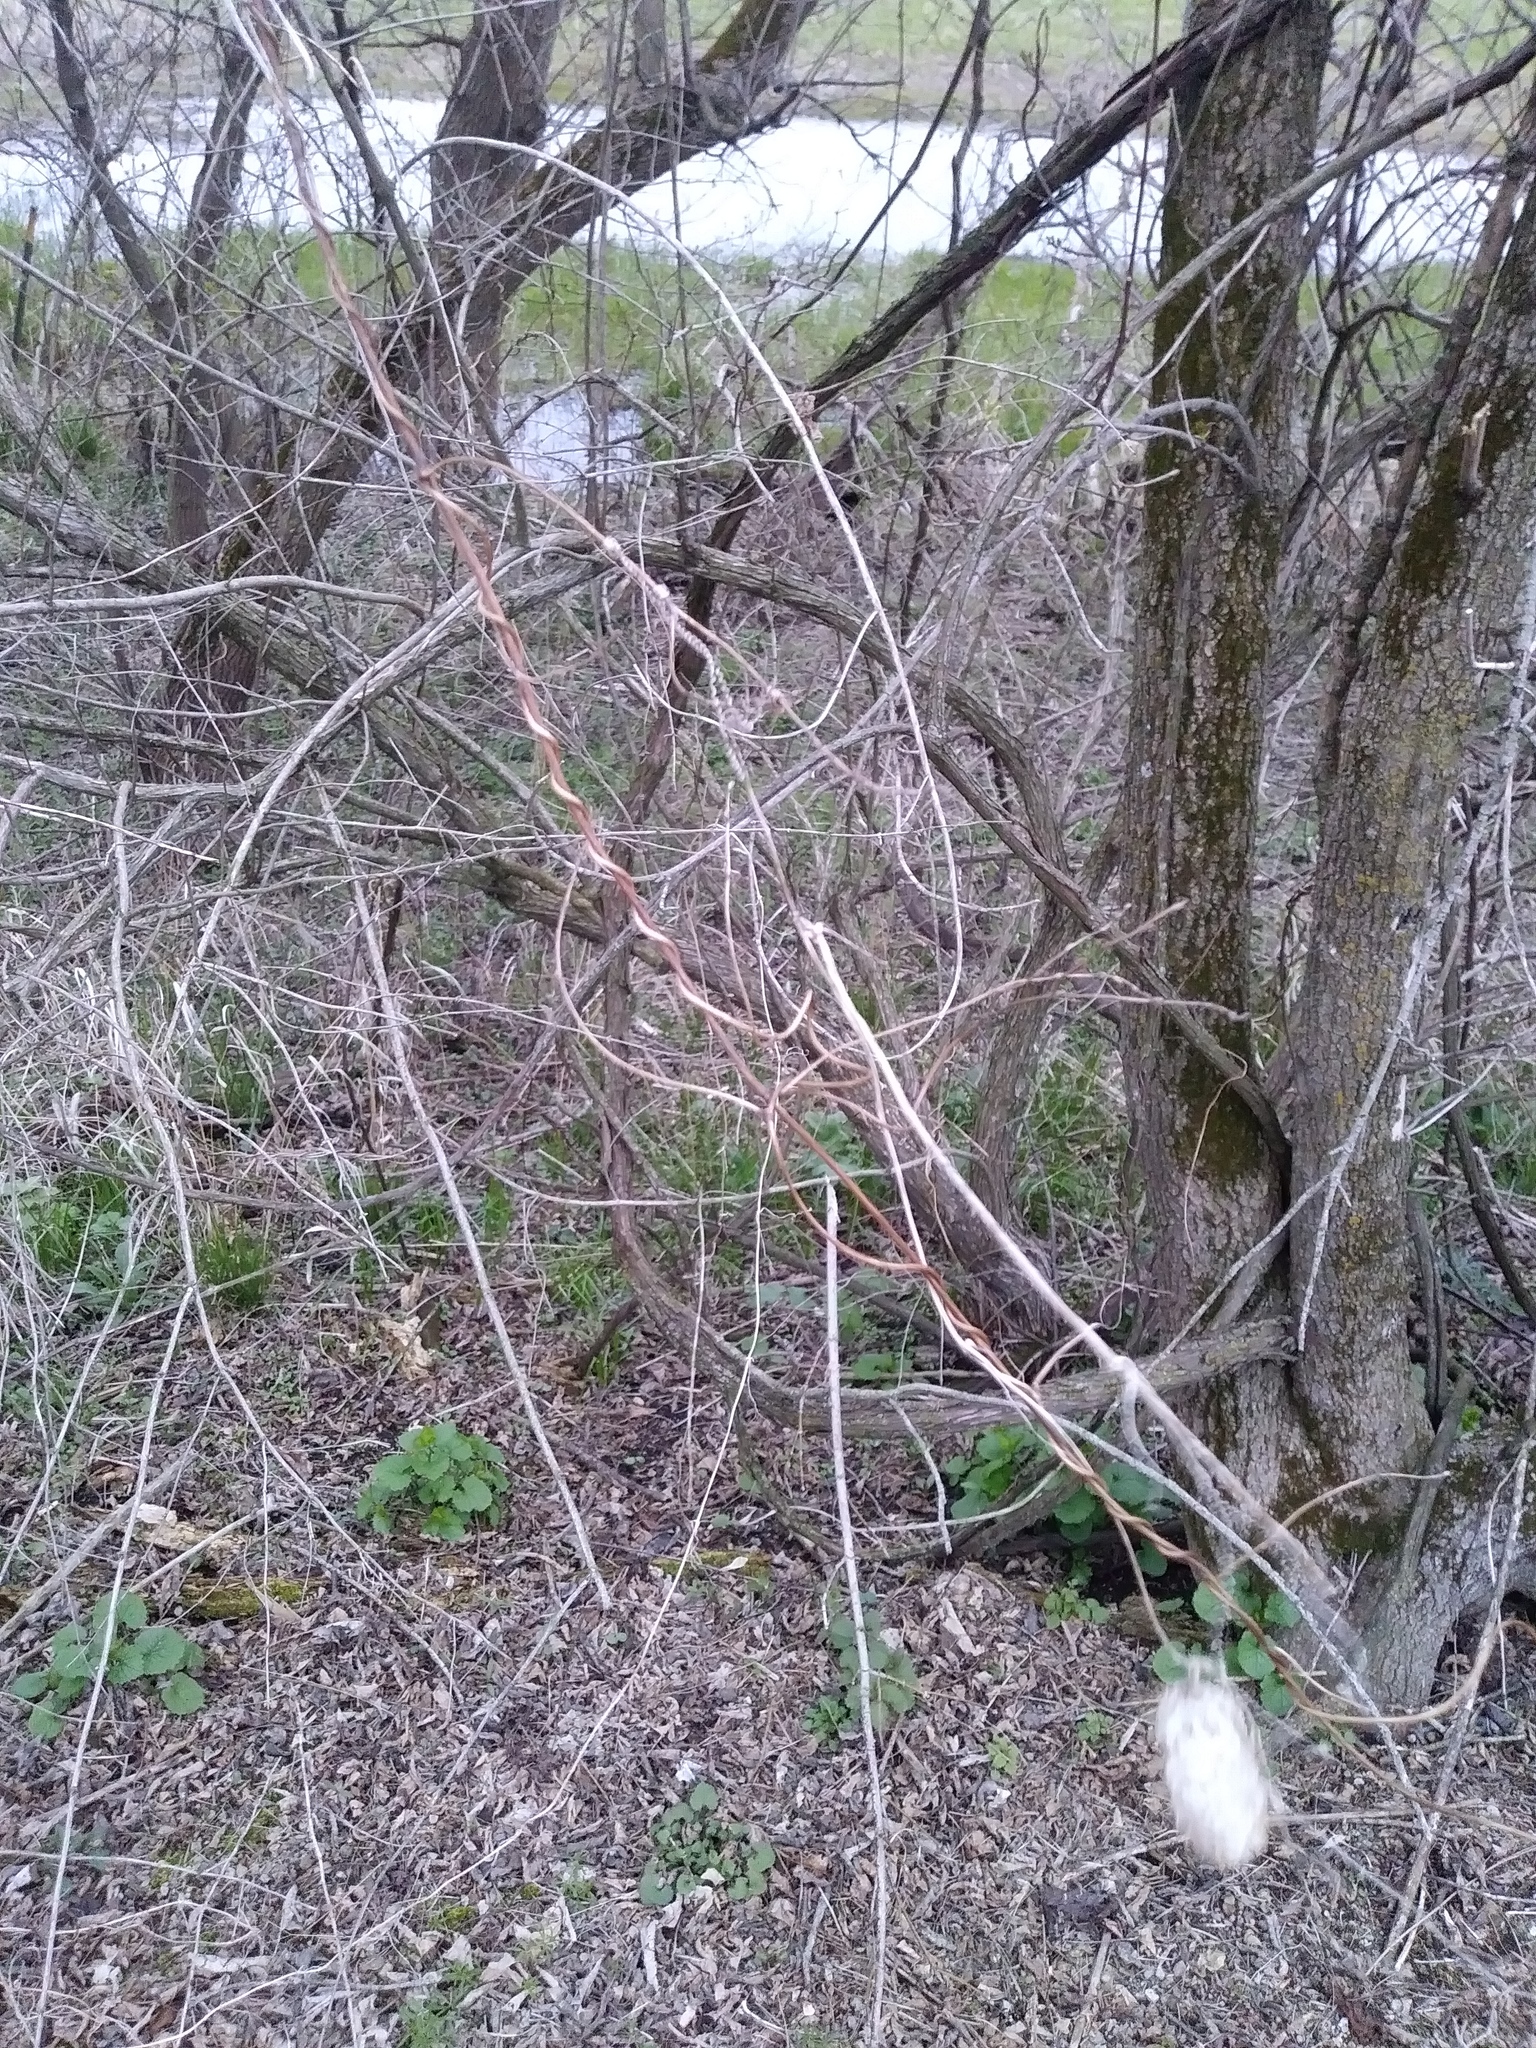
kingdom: Plantae
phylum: Tracheophyta
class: Magnoliopsida
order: Cucurbitales
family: Cucurbitaceae
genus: Echinocystis
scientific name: Echinocystis lobata
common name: Wild cucumber
